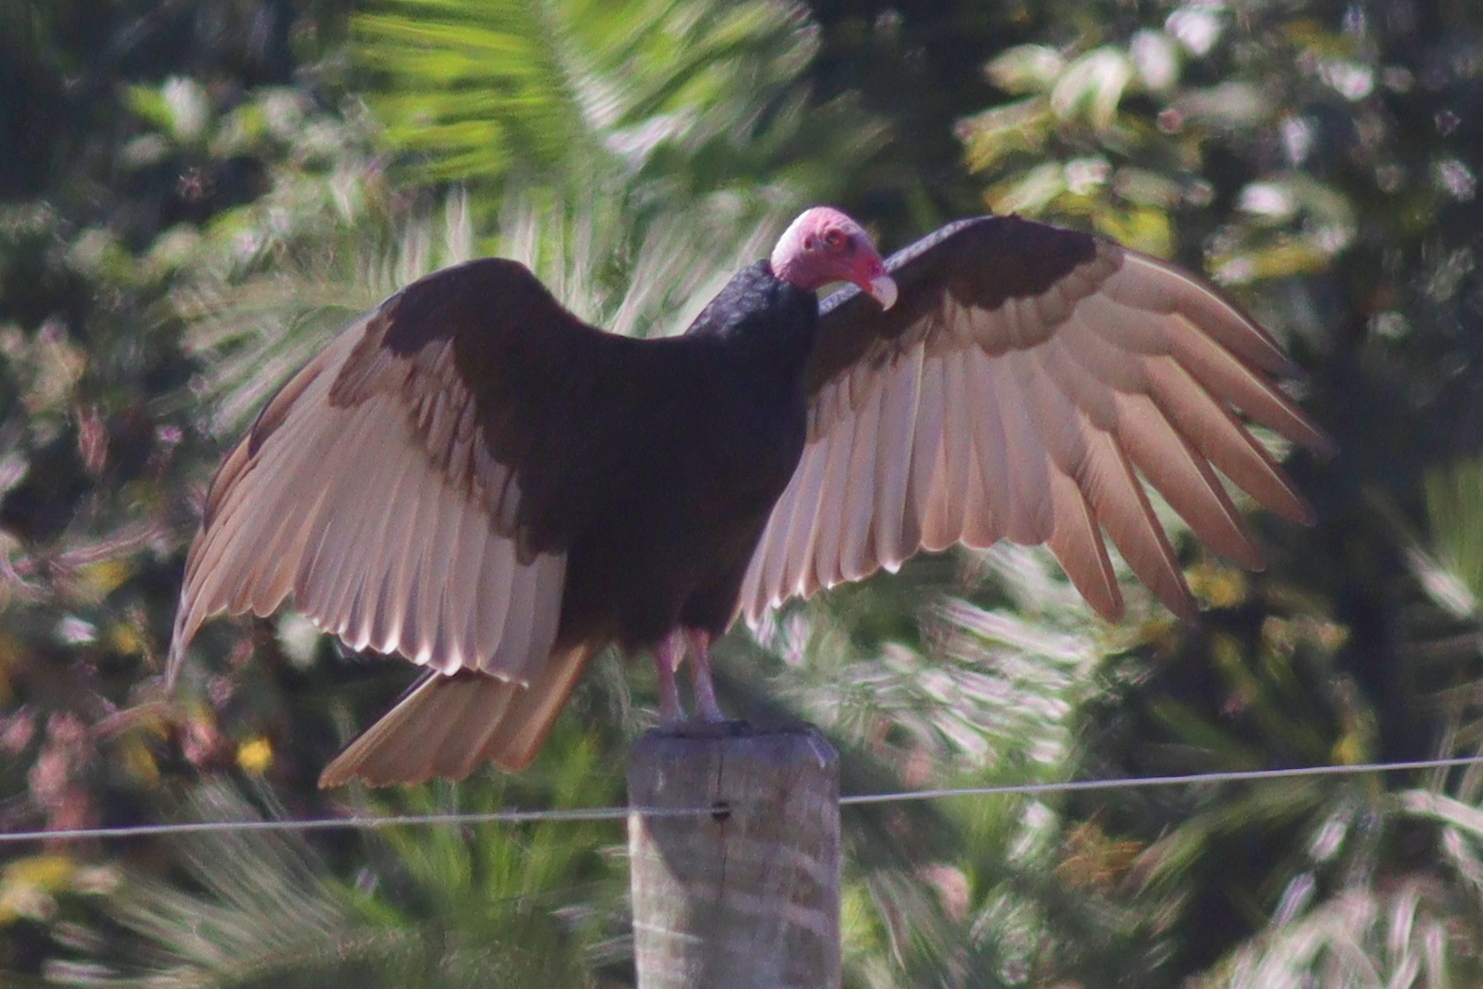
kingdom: Animalia
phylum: Chordata
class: Aves
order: Accipitriformes
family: Cathartidae
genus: Cathartes
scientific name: Cathartes aura
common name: Turkey vulture
